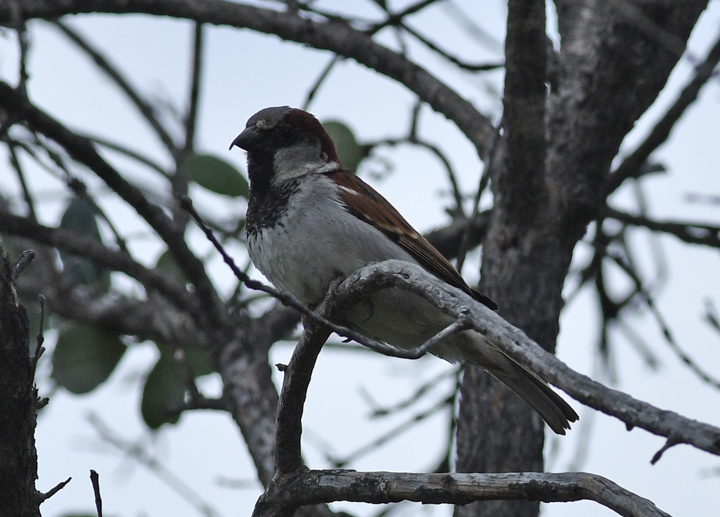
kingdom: Animalia
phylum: Chordata
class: Aves
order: Passeriformes
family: Passeridae
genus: Passer
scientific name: Passer domesticus
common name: House sparrow
